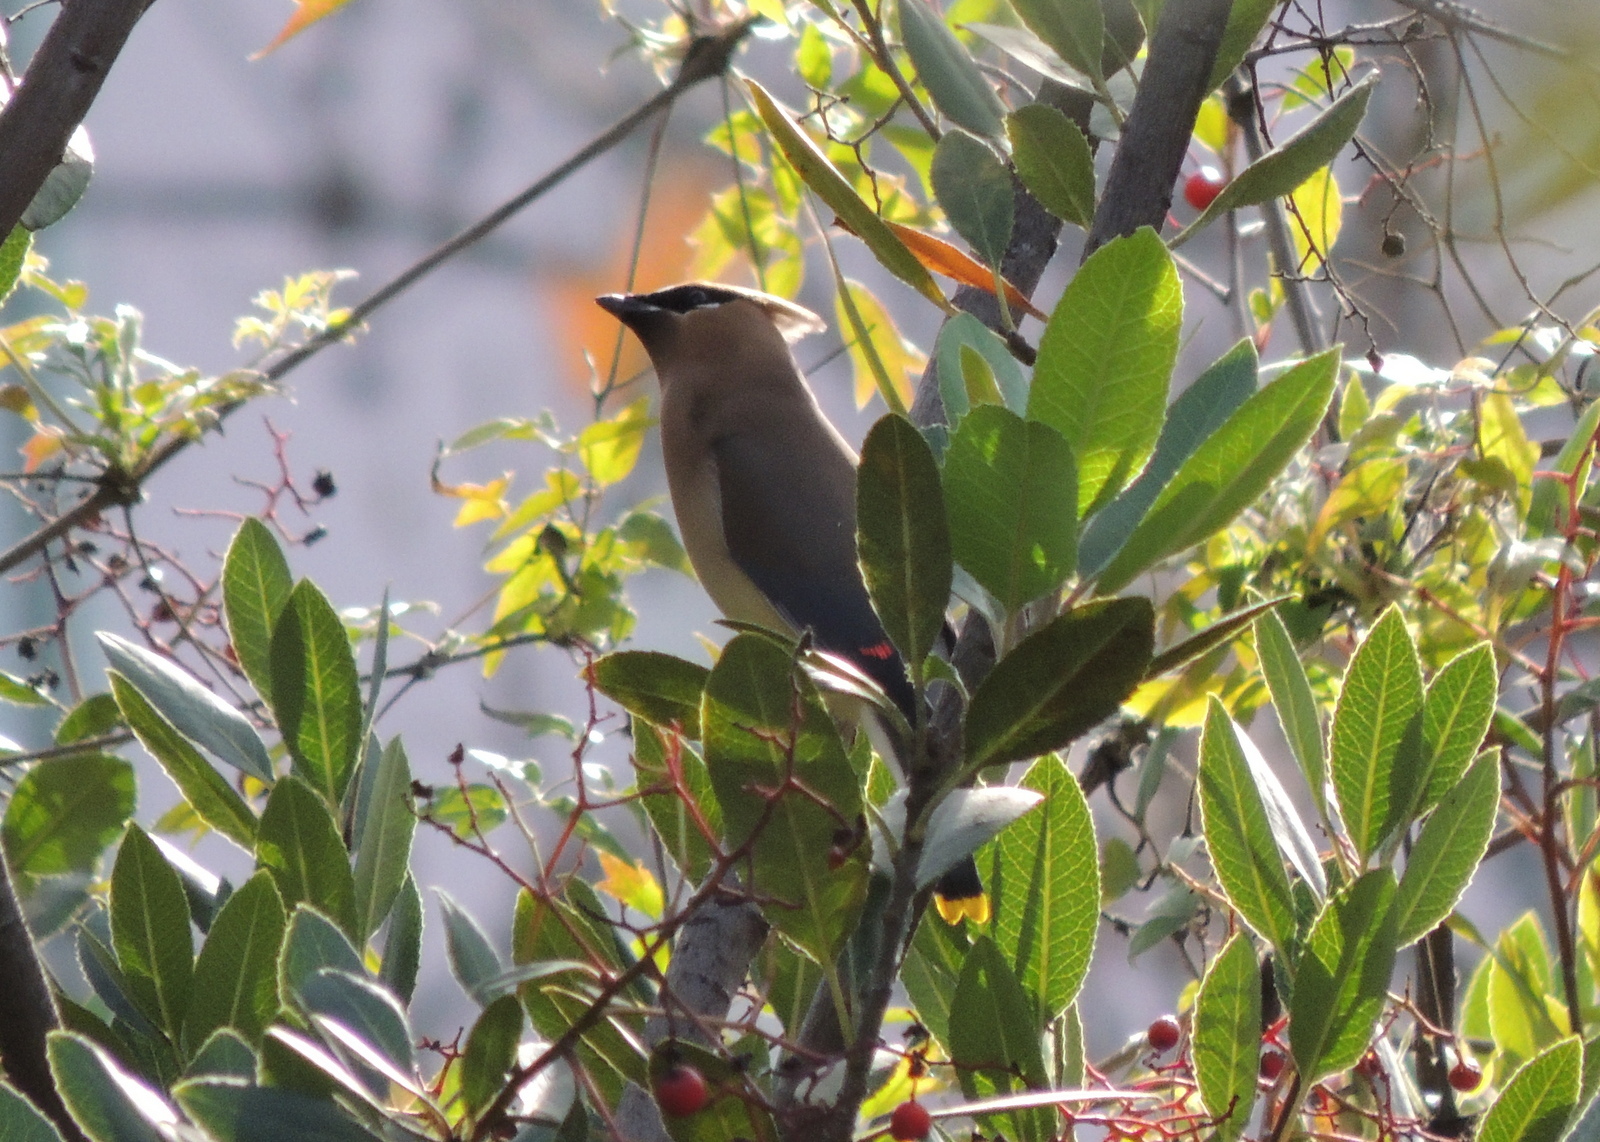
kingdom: Animalia
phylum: Chordata
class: Aves
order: Passeriformes
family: Bombycillidae
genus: Bombycilla
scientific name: Bombycilla cedrorum
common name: Cedar waxwing
